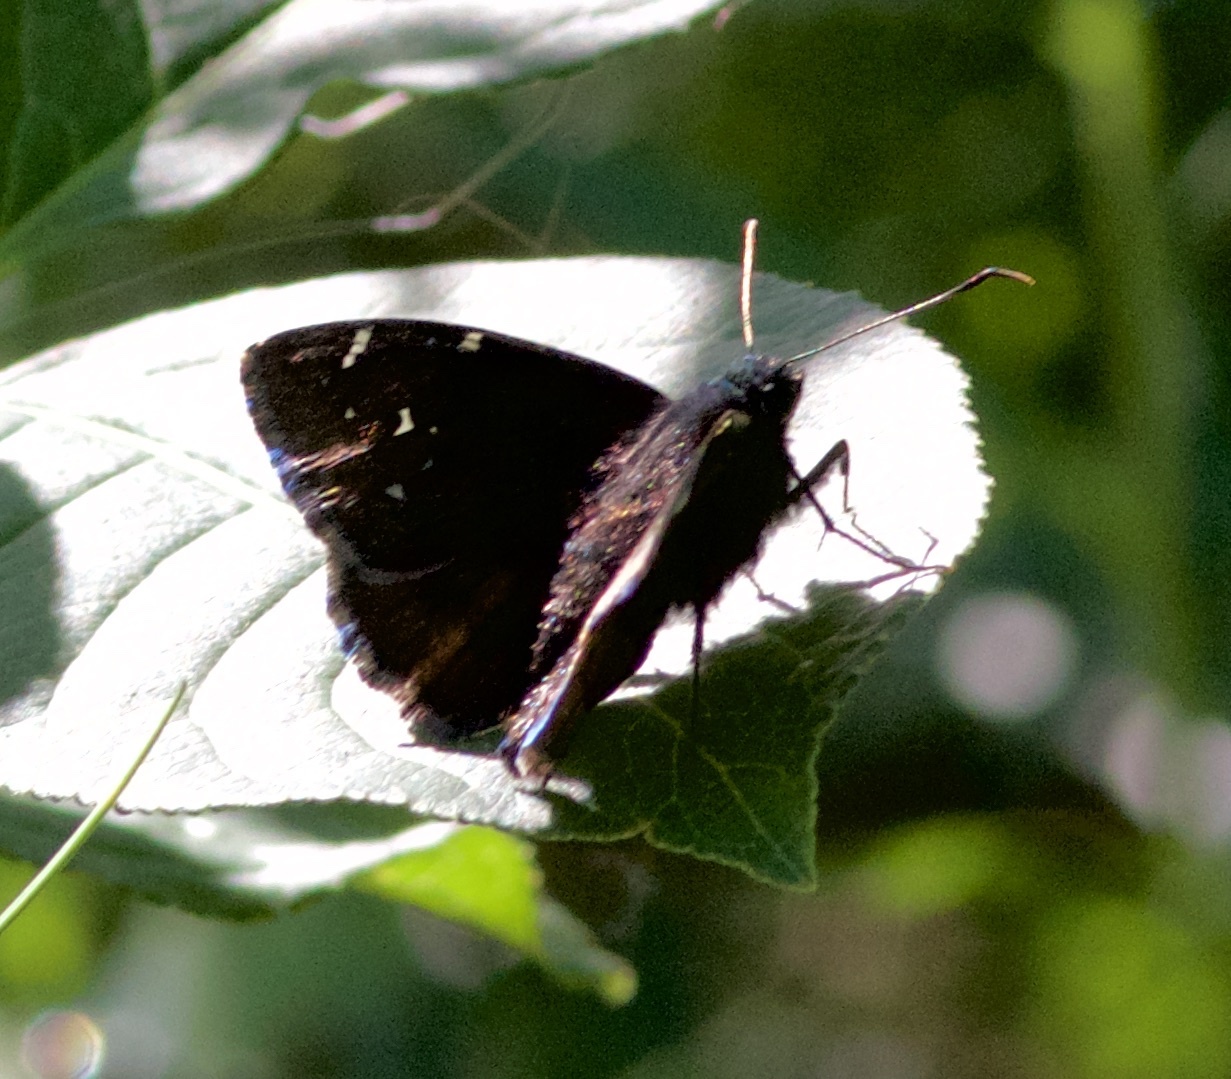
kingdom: Animalia
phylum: Arthropoda
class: Insecta
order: Lepidoptera
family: Hesperiidae
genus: Thorybes
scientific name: Thorybes pylades
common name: Northern cloudywing
